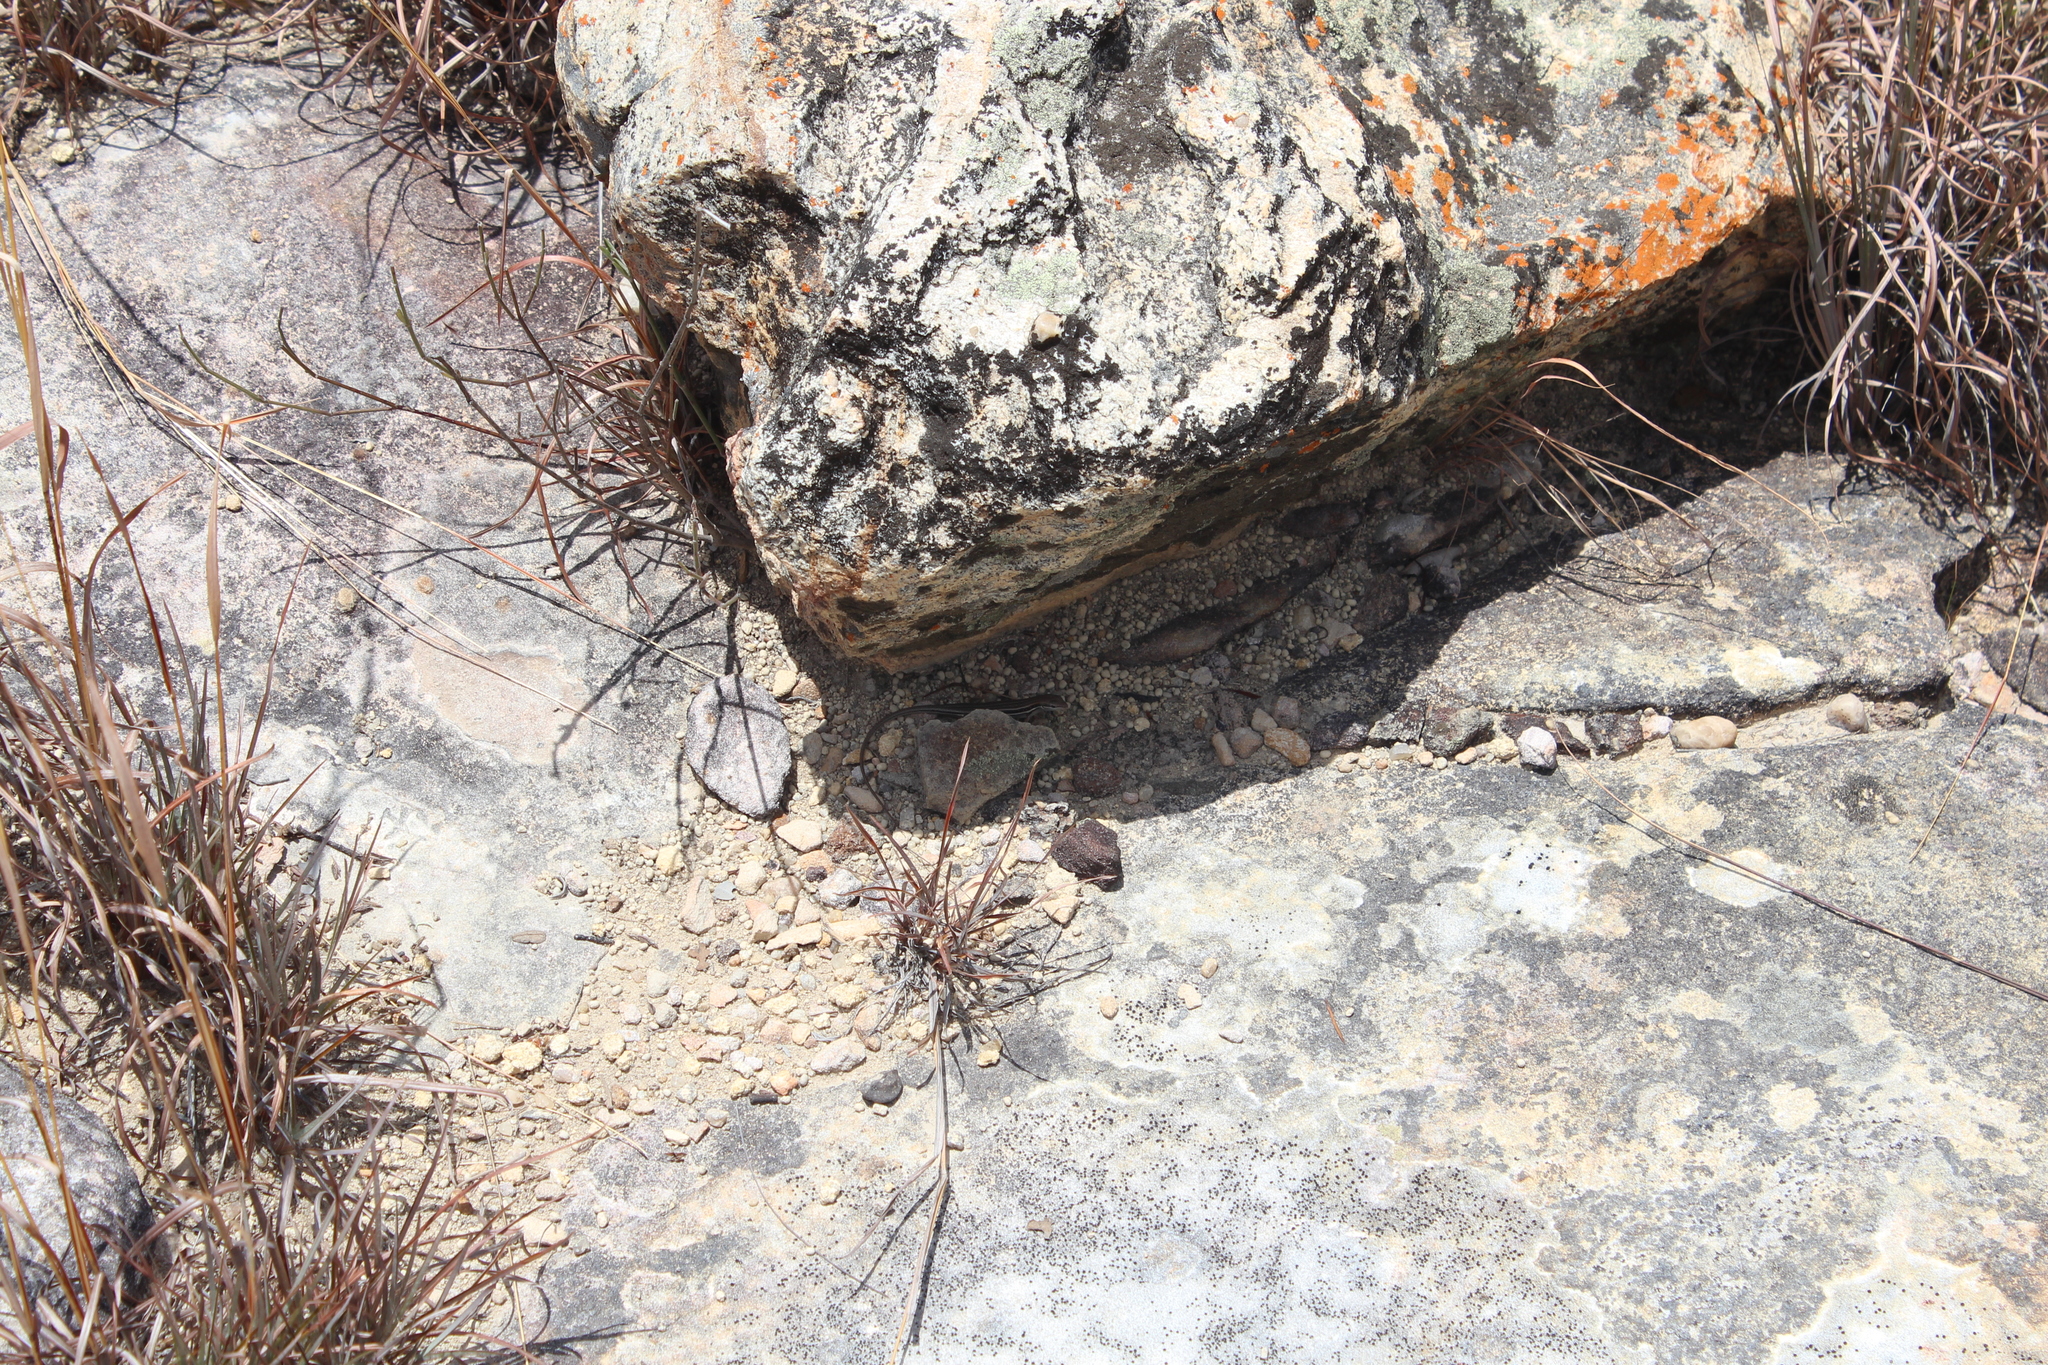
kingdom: Animalia
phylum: Chordata
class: Squamata
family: Scincidae
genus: Trachylepis
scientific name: Trachylepis gravenhorstii
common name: Gravenhorst's mabuya
